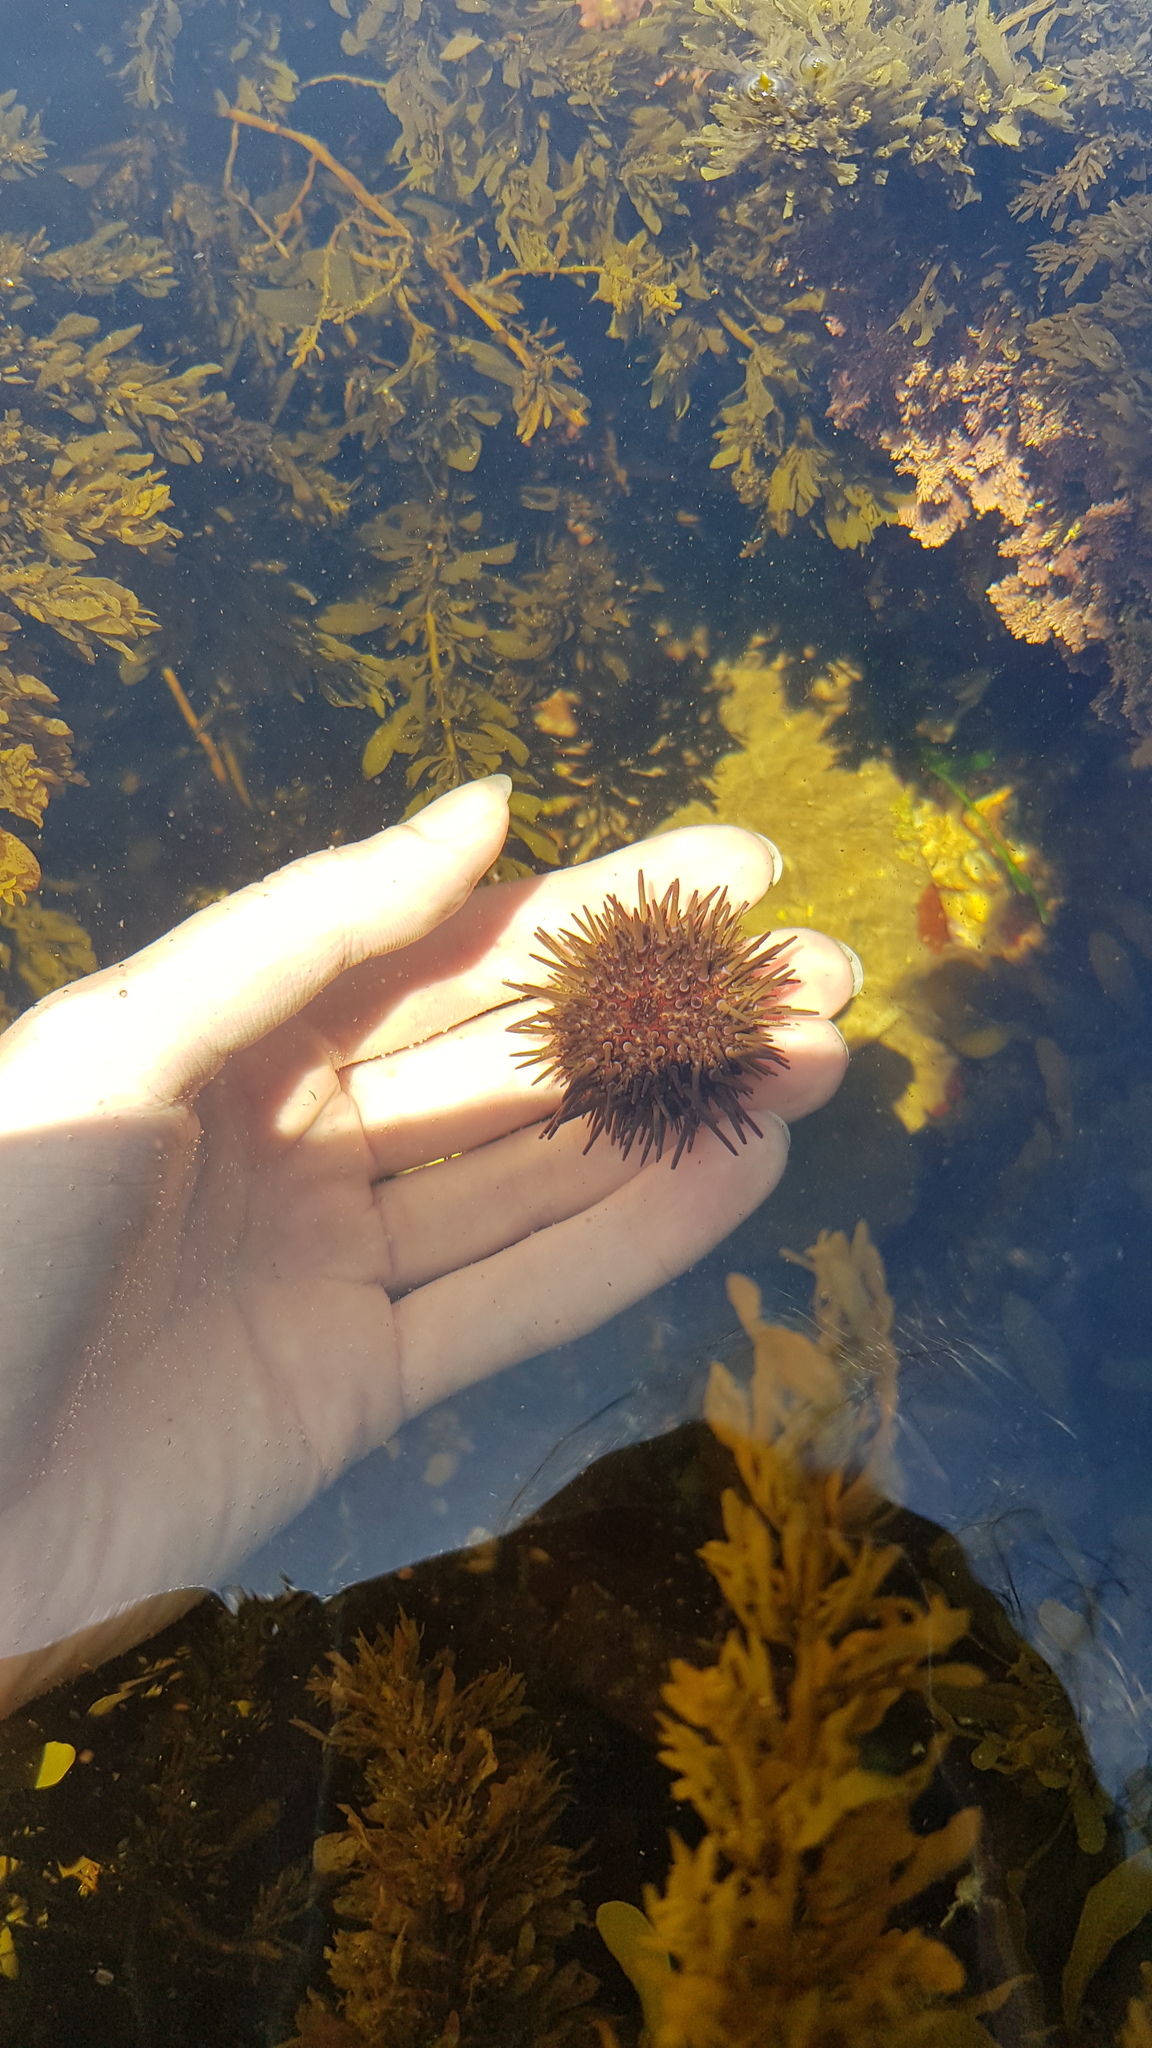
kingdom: Animalia
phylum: Echinodermata
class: Echinoidea
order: Camarodonta
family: Echinometridae
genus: Heliocidaris
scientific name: Heliocidaris erythrogramma
